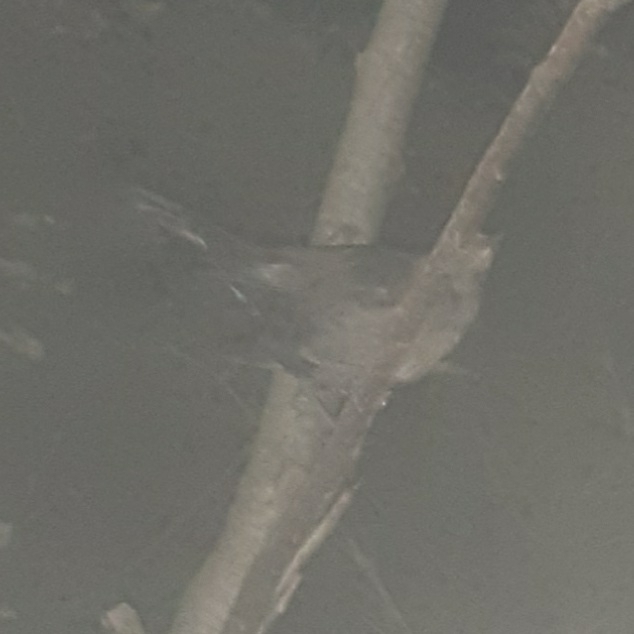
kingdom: Animalia
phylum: Chordata
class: Aves
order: Passeriformes
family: Turdidae
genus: Turdus
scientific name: Turdus merula
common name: Common blackbird
